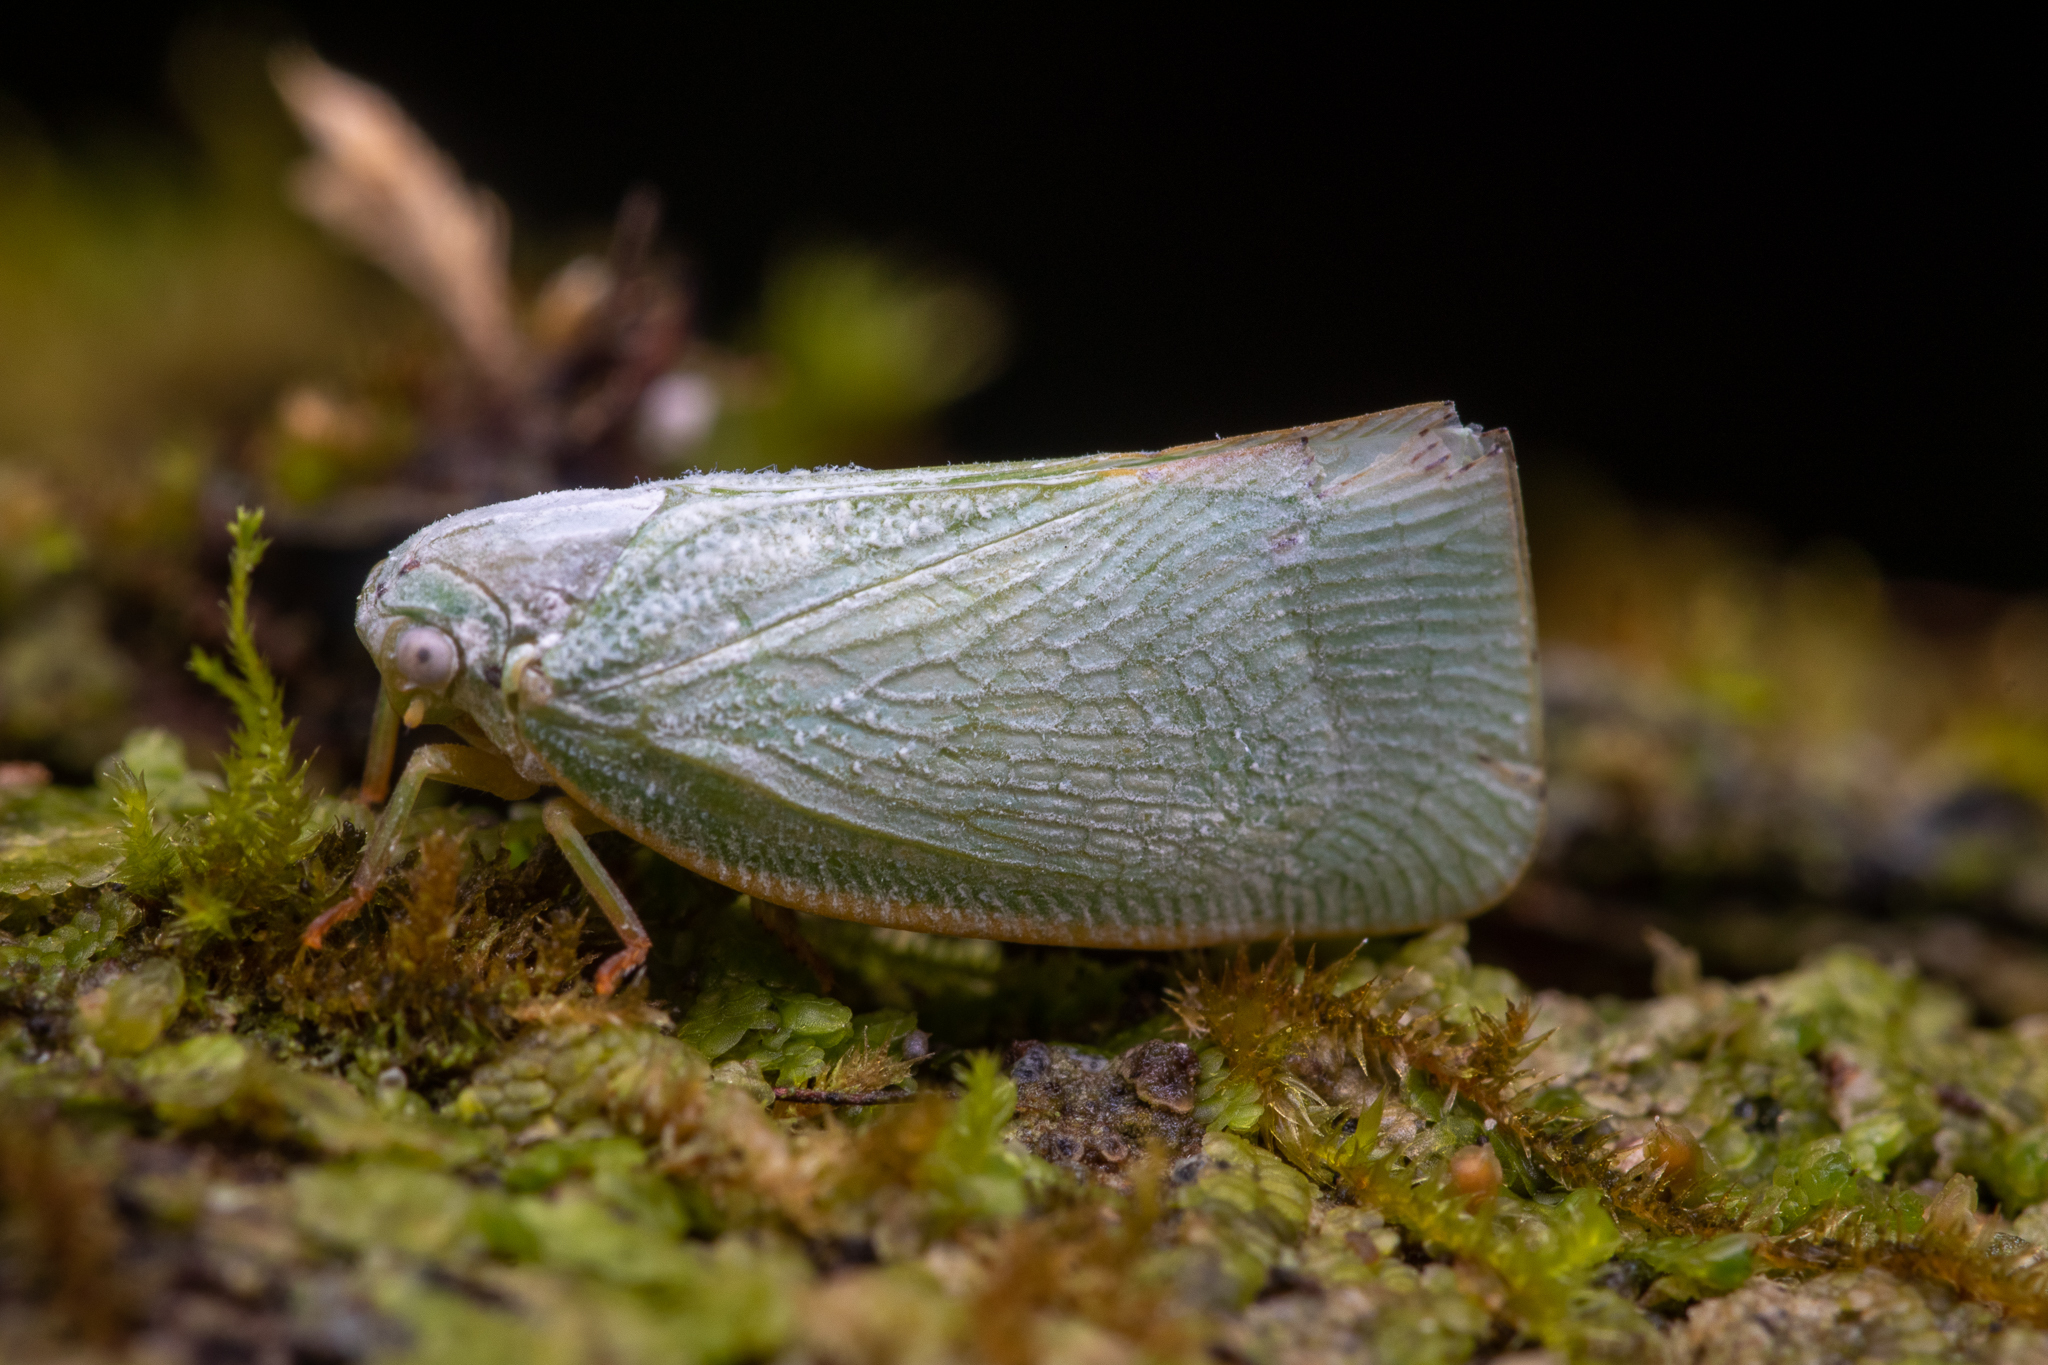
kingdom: Animalia
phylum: Arthropoda
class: Insecta
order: Hemiptera
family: Flatidae
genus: Flatormenis
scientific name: Flatormenis proxima
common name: Northern flatid planthopper
